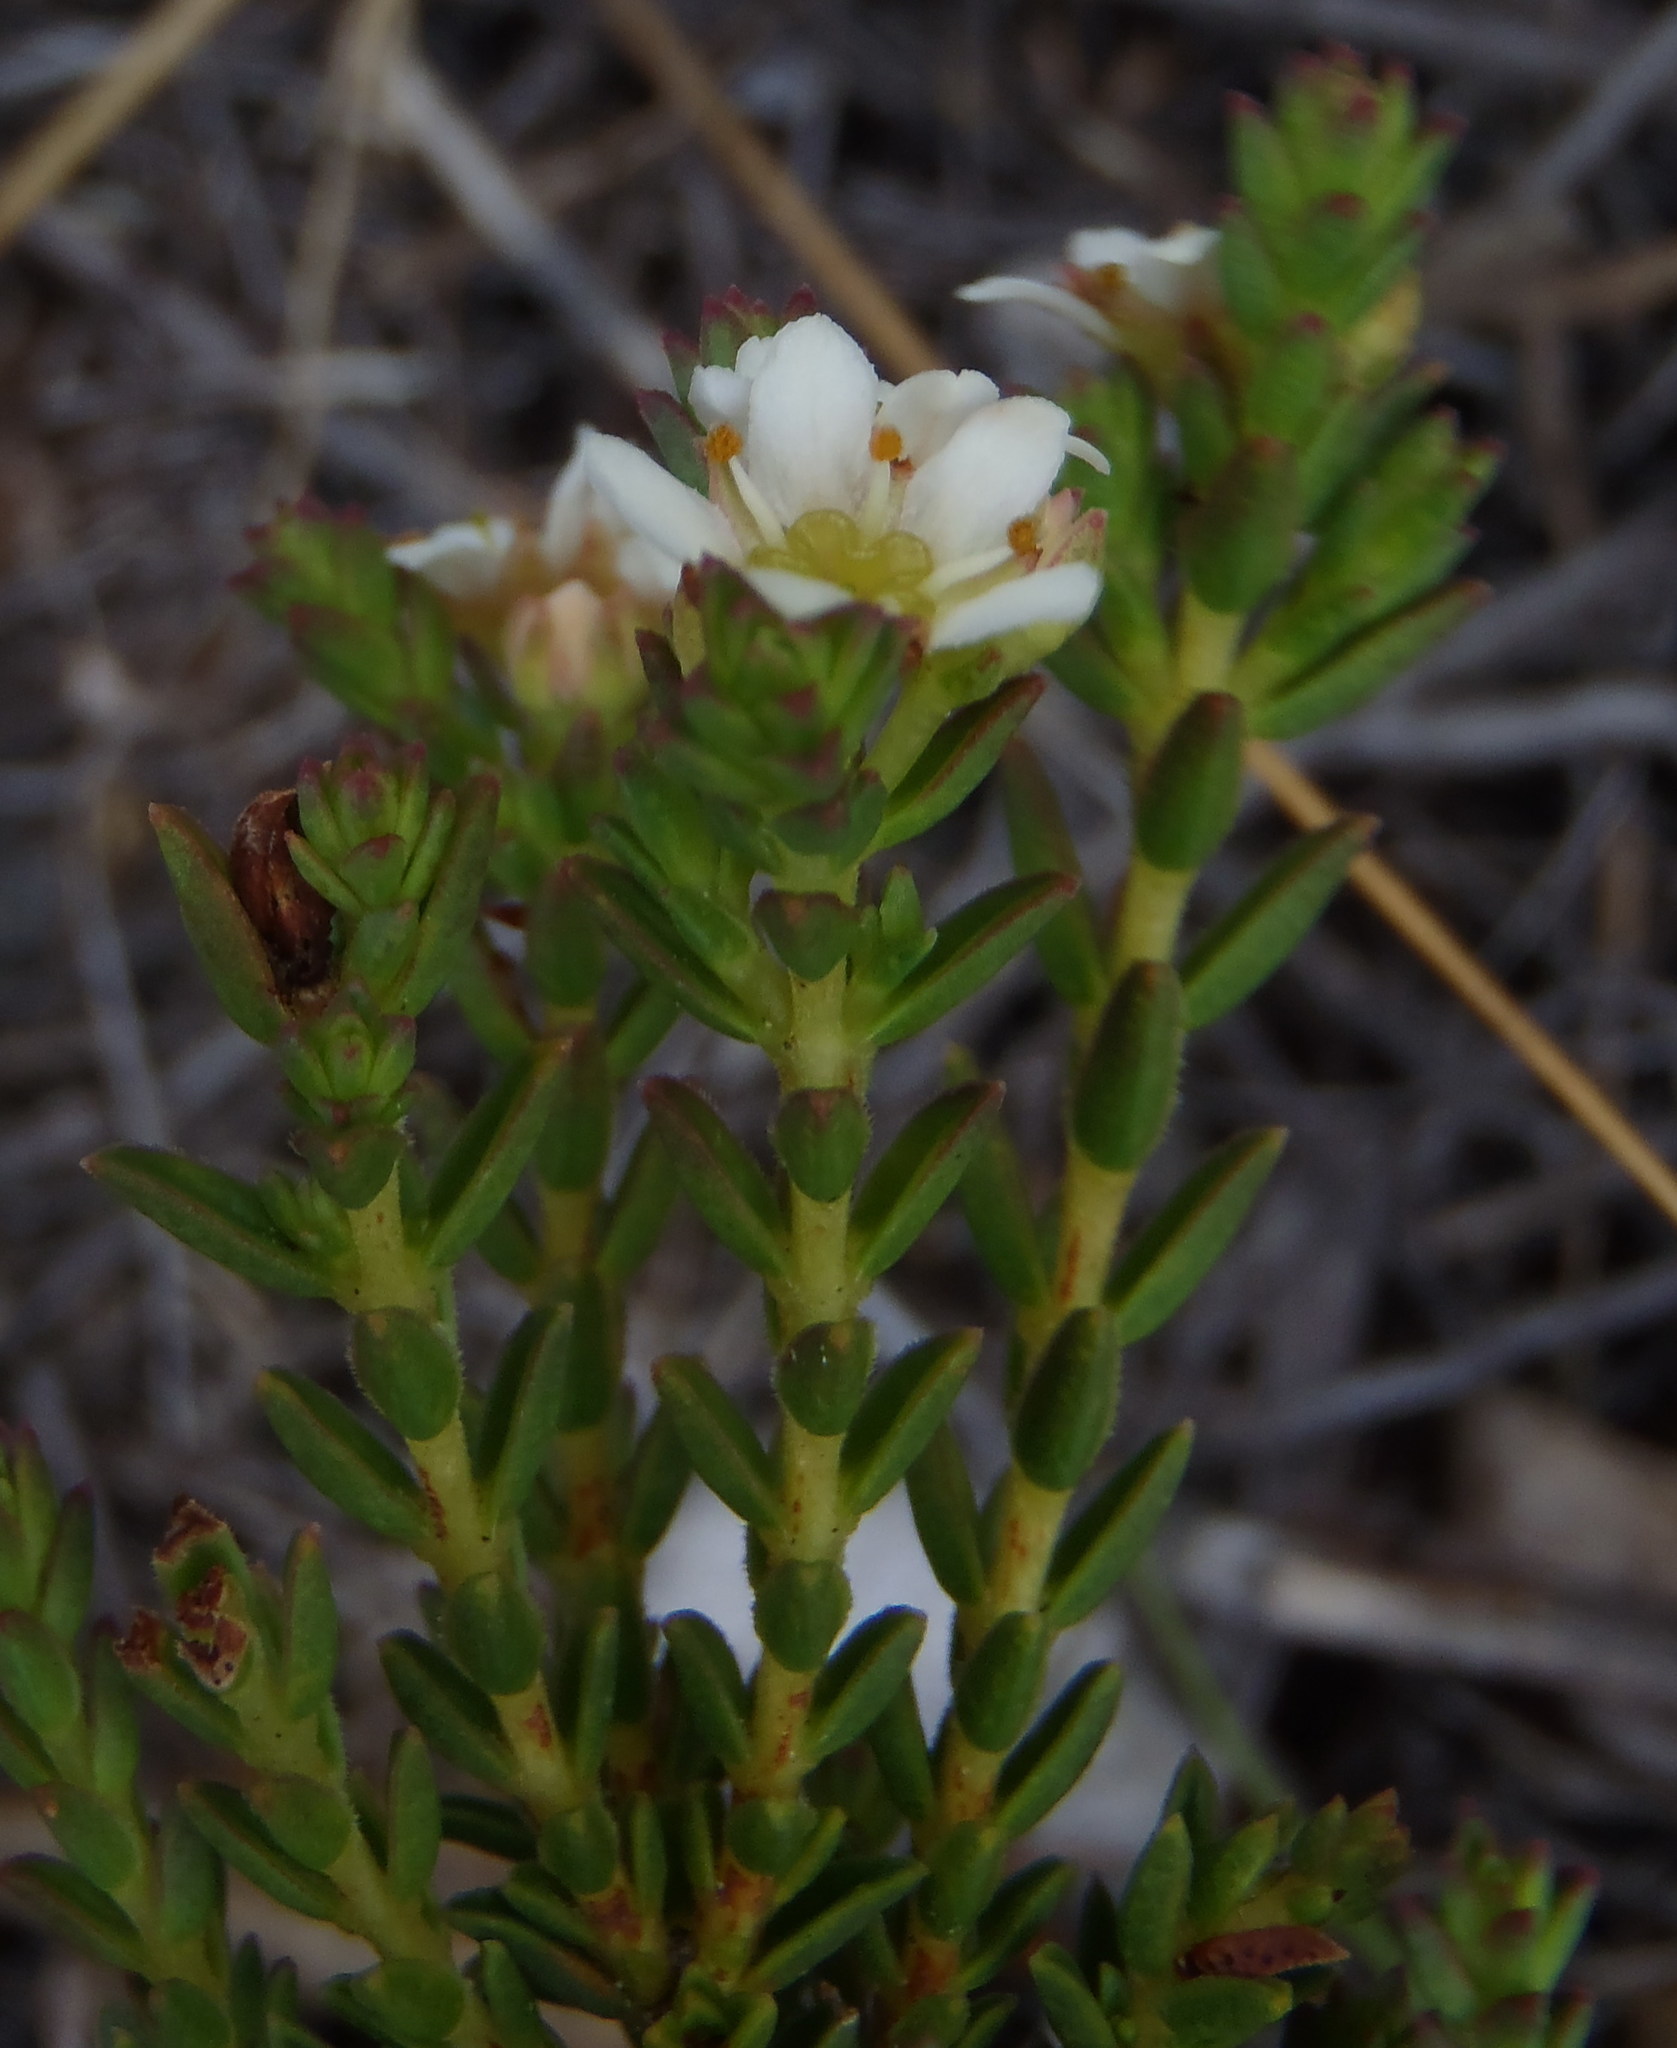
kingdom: Plantae
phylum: Tracheophyta
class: Magnoliopsida
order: Sapindales
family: Rutaceae
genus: Diosma
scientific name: Diosma oppositifolia
